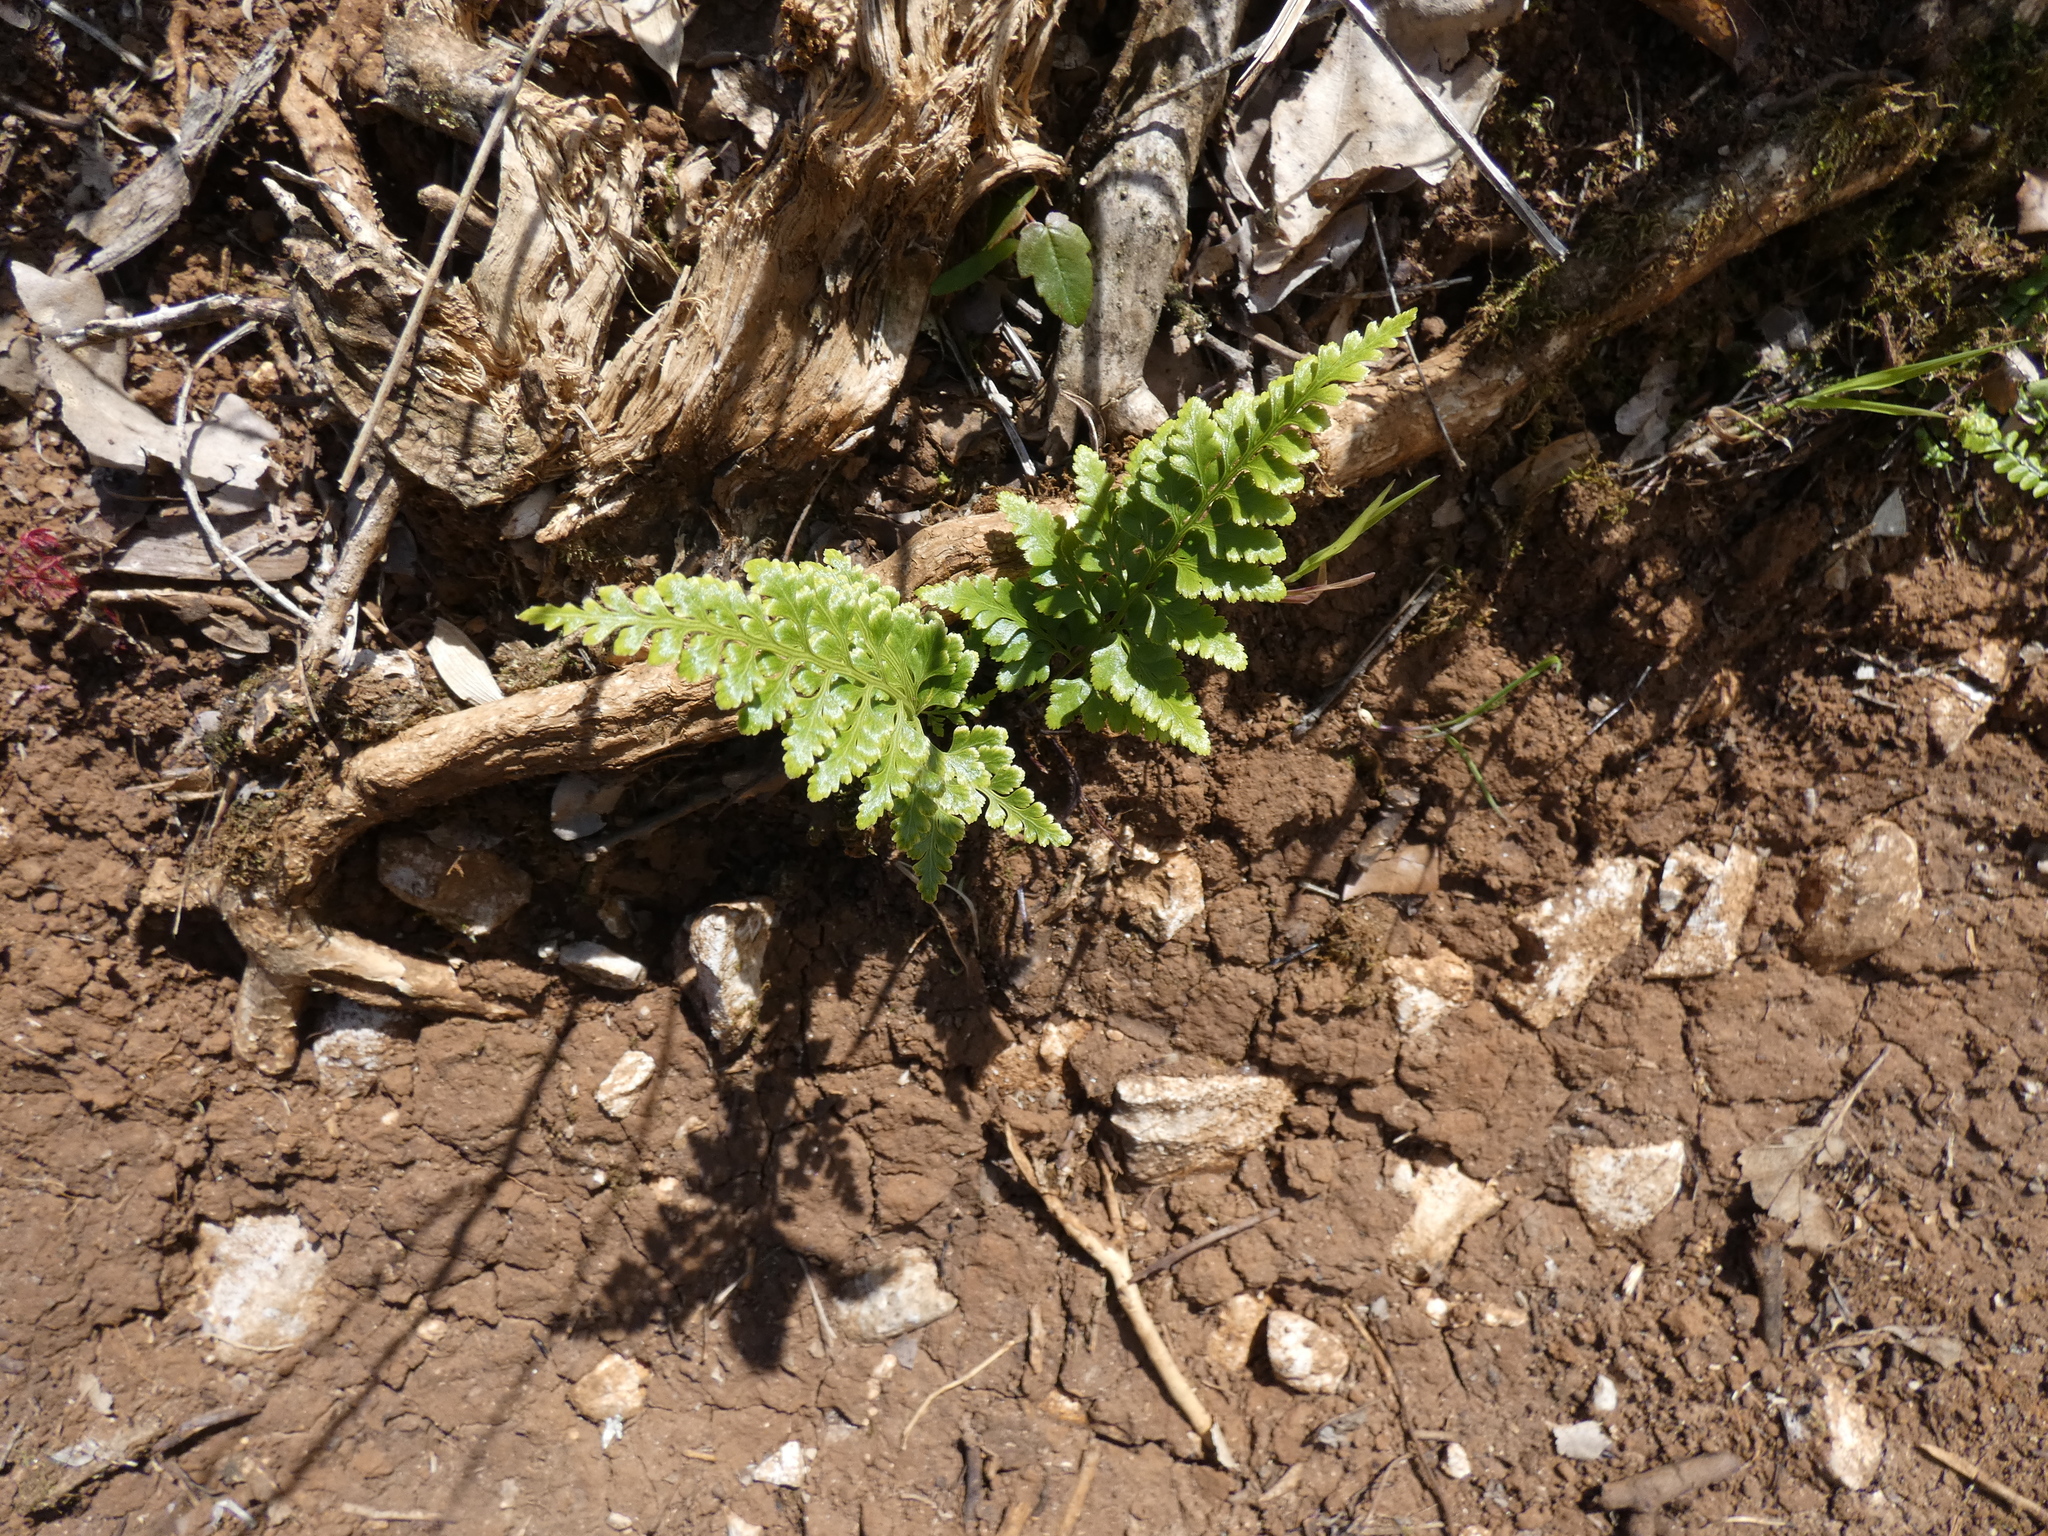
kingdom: Plantae
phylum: Tracheophyta
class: Polypodiopsida
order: Polypodiales
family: Aspleniaceae
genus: Asplenium
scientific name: Asplenium adiantum-nigrum
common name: Black spleenwort
